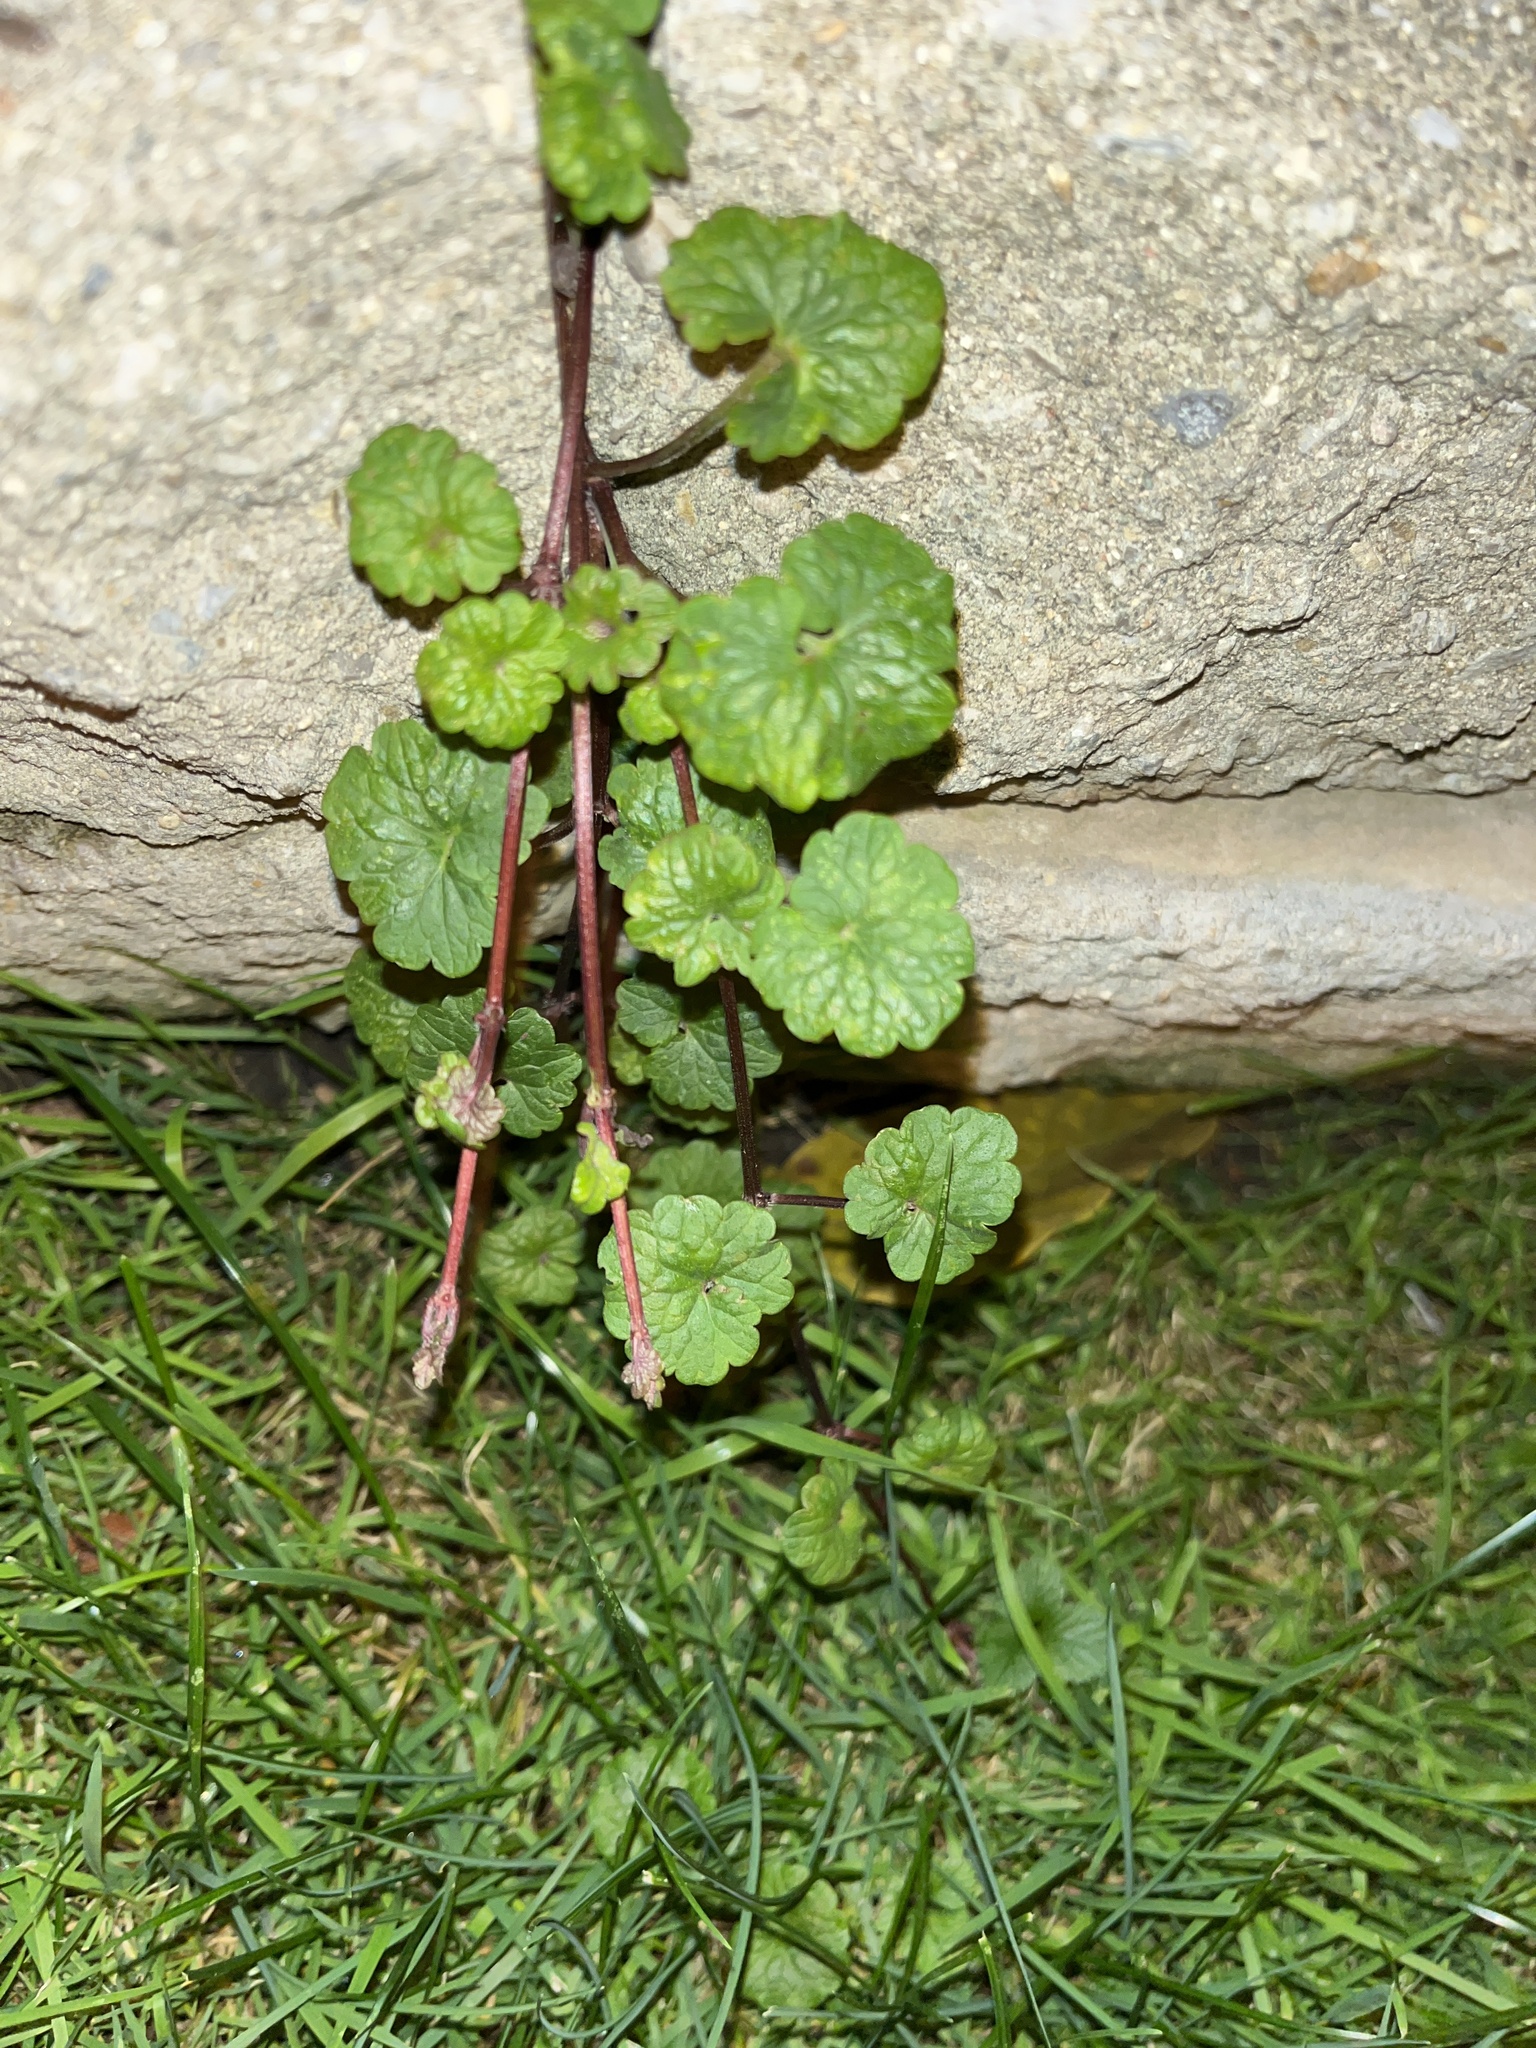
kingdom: Plantae
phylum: Tracheophyta
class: Magnoliopsida
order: Lamiales
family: Lamiaceae
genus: Glechoma
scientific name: Glechoma hederacea
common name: Ground ivy
